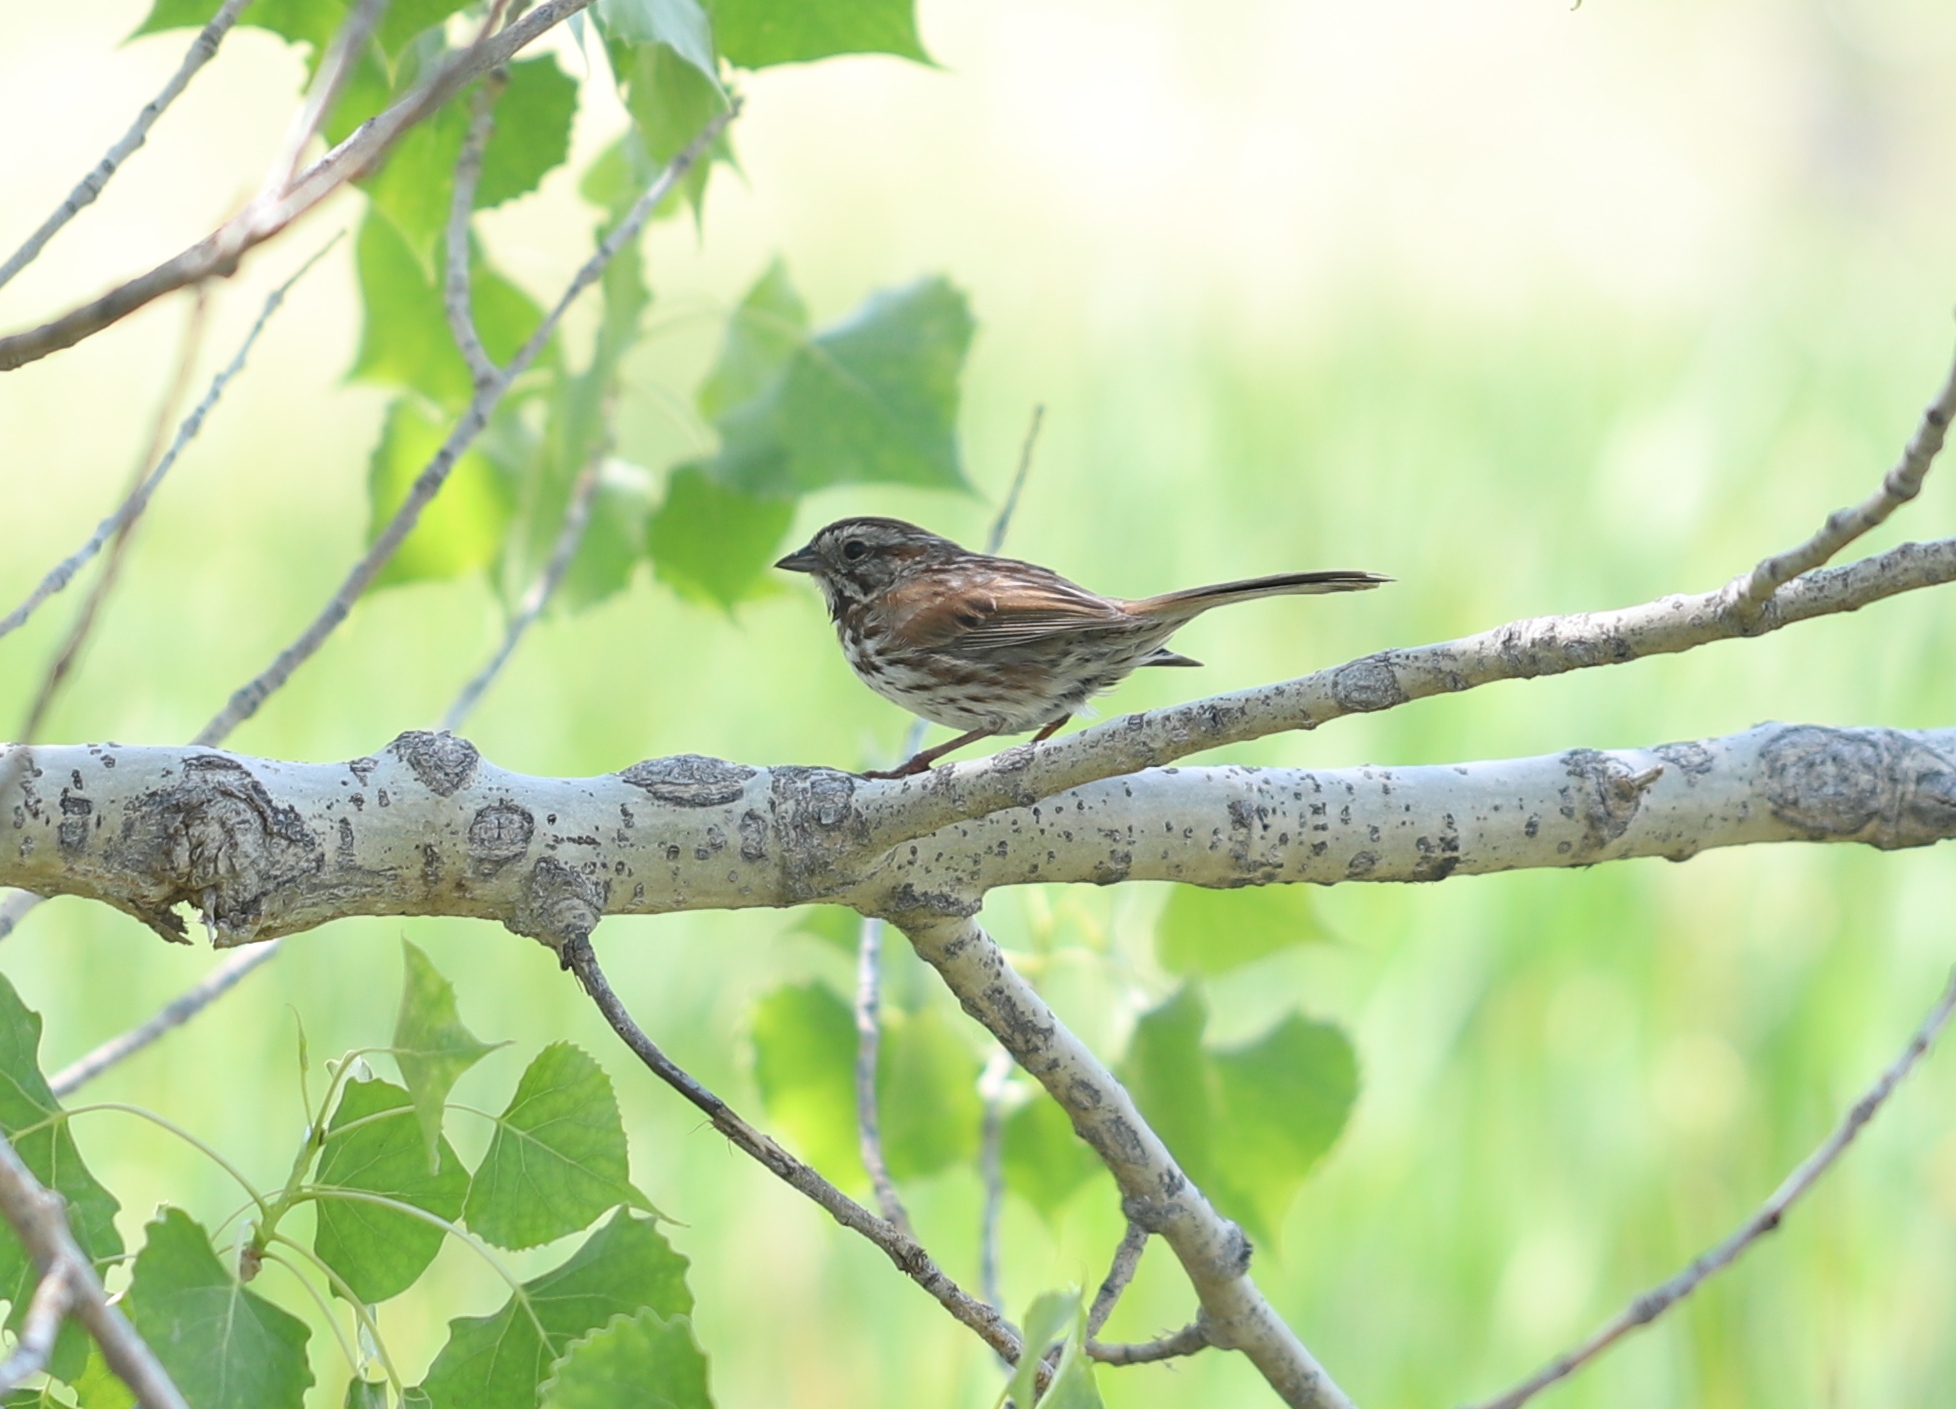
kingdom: Animalia
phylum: Chordata
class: Aves
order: Passeriformes
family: Passerellidae
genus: Melospiza
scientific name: Melospiza melodia
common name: Song sparrow
